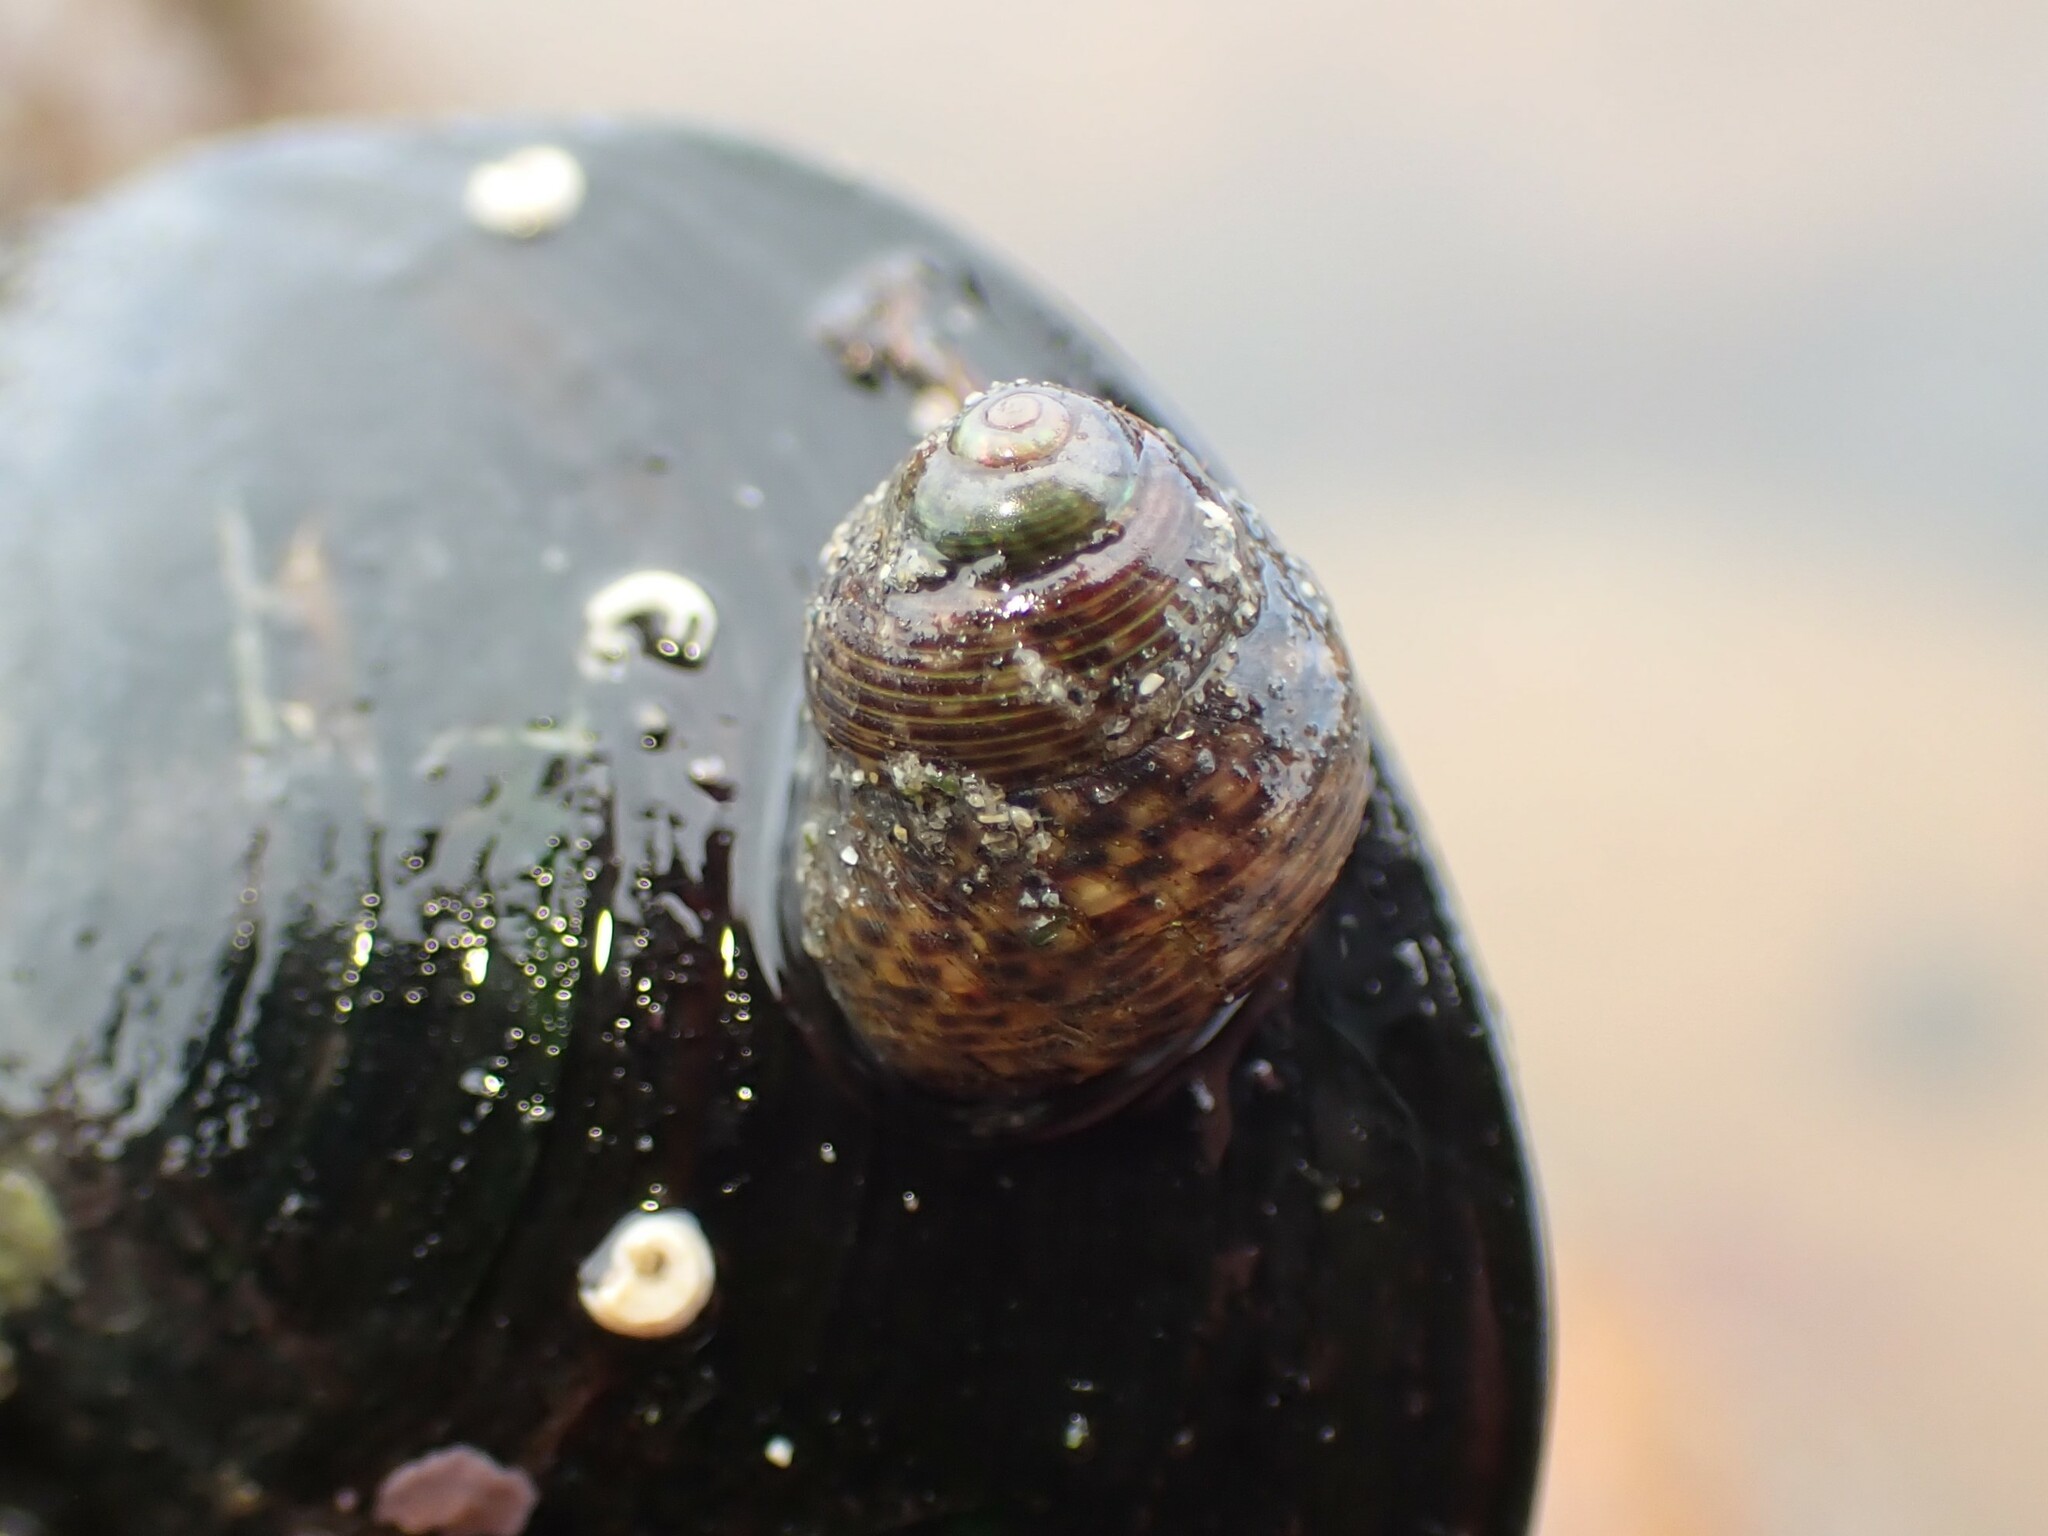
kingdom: Animalia
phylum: Mollusca
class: Gastropoda
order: Trochida
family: Trochidae
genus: Micrelenchus
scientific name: Micrelenchus tessellatus
